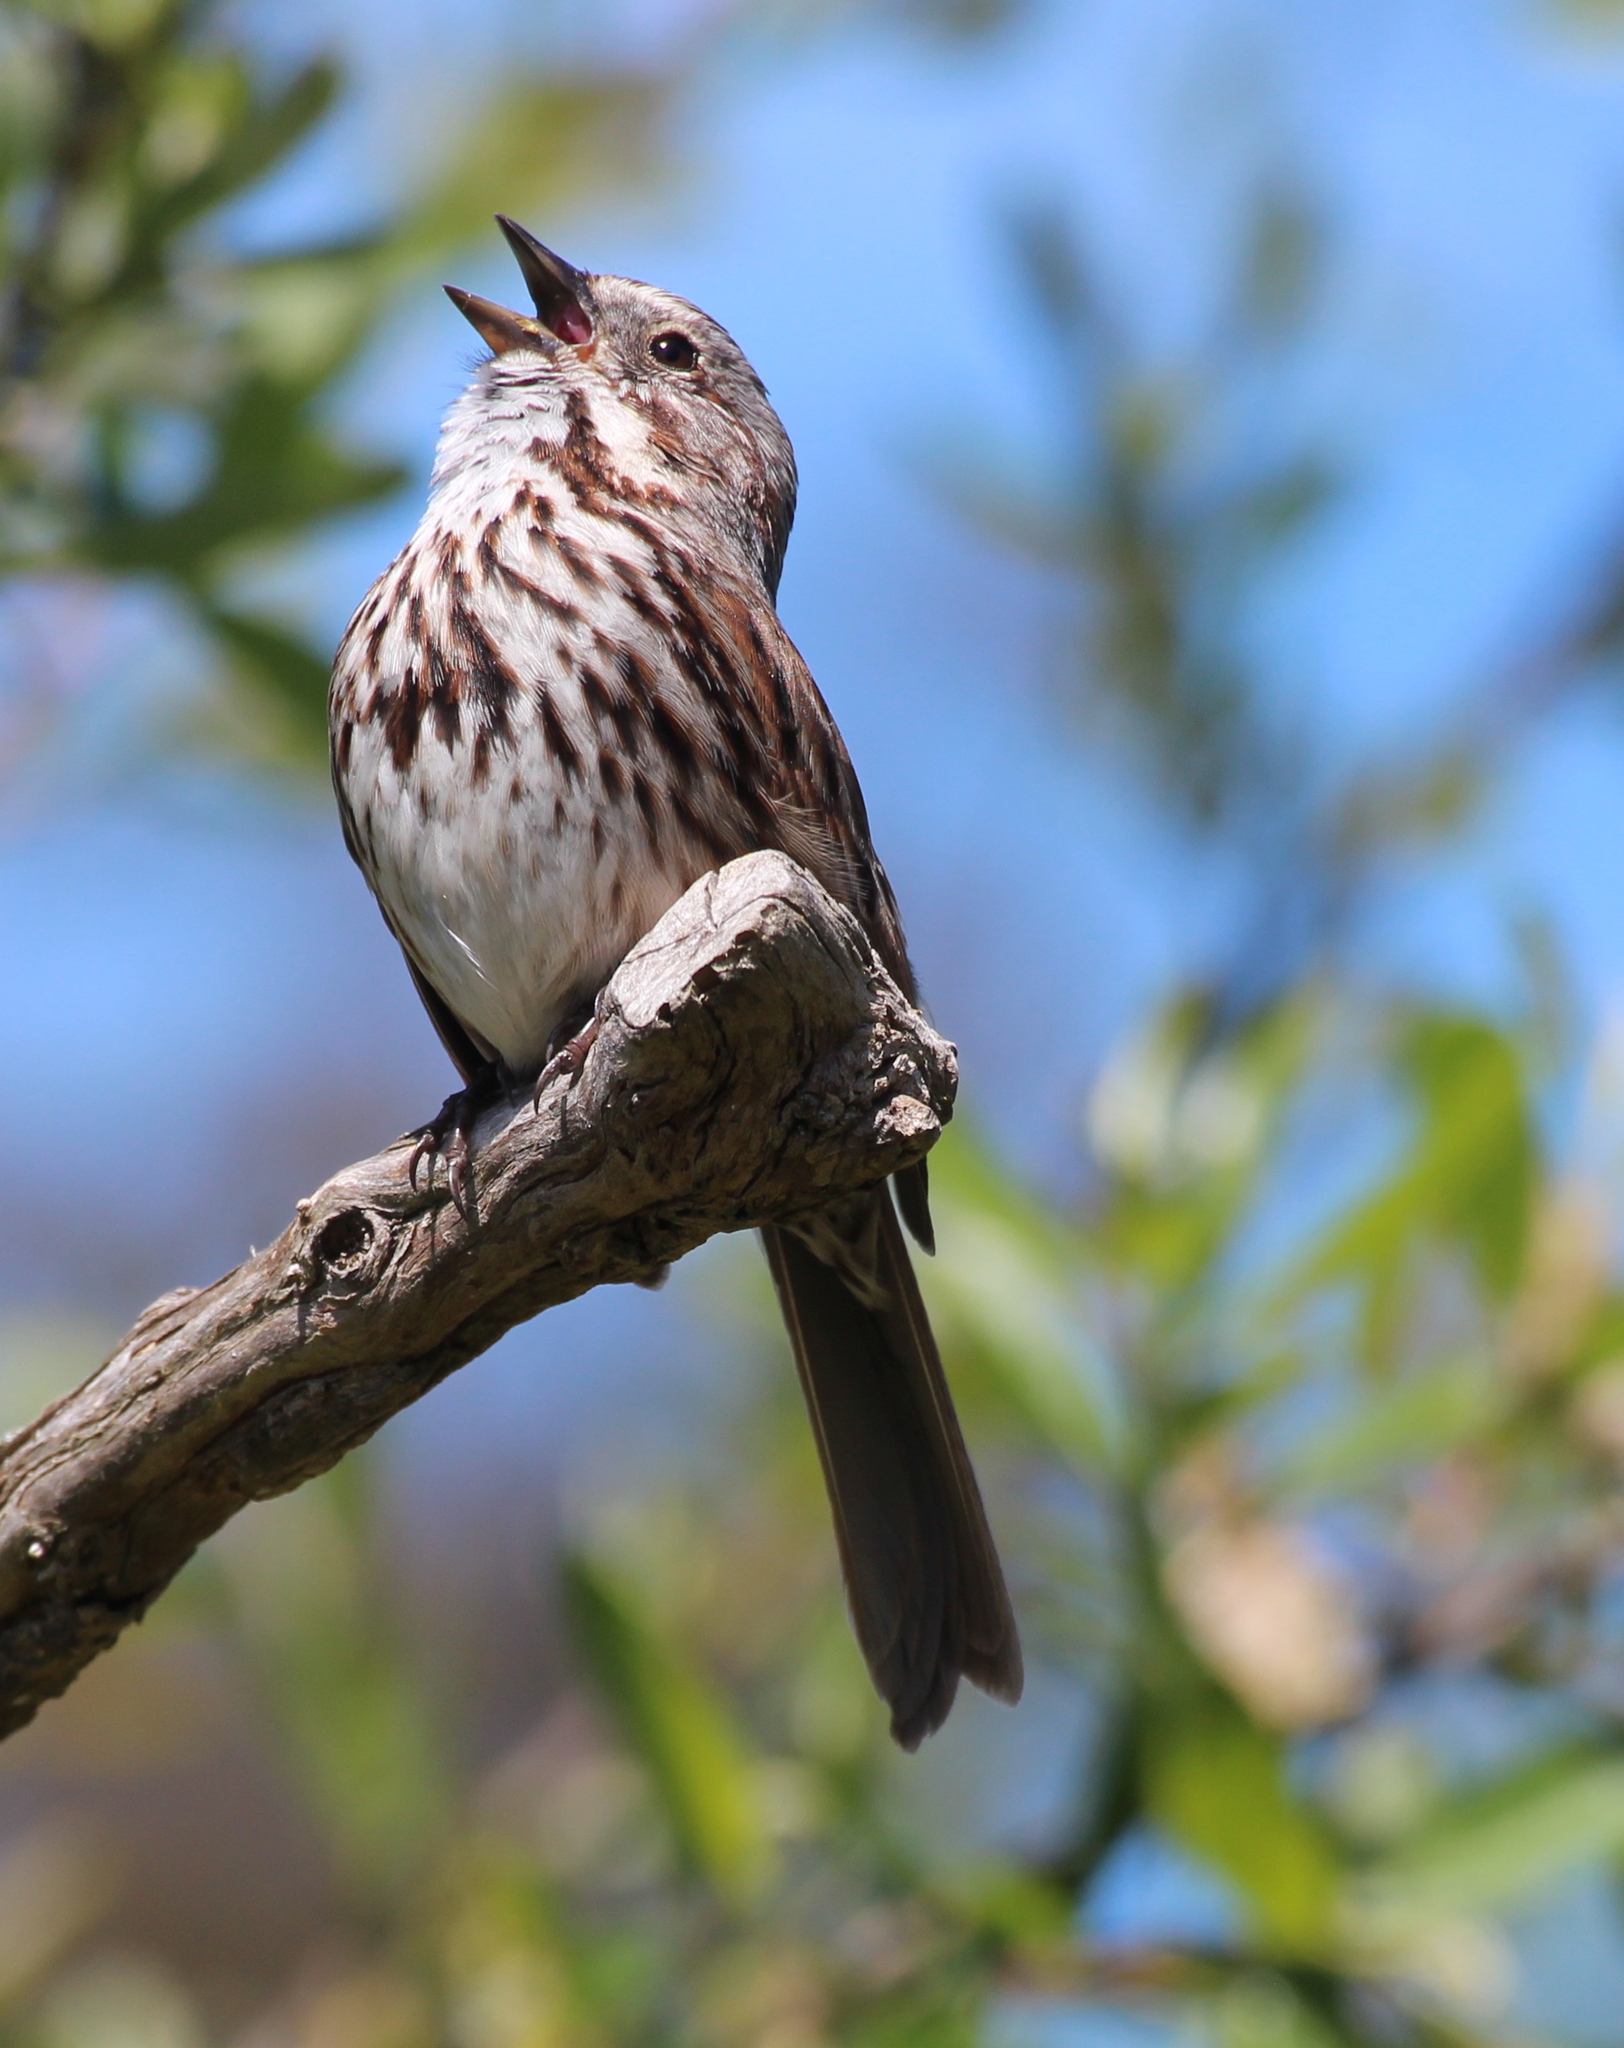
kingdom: Animalia
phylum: Chordata
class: Aves
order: Passeriformes
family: Passerellidae
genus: Melospiza
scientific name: Melospiza melodia
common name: Song sparrow
